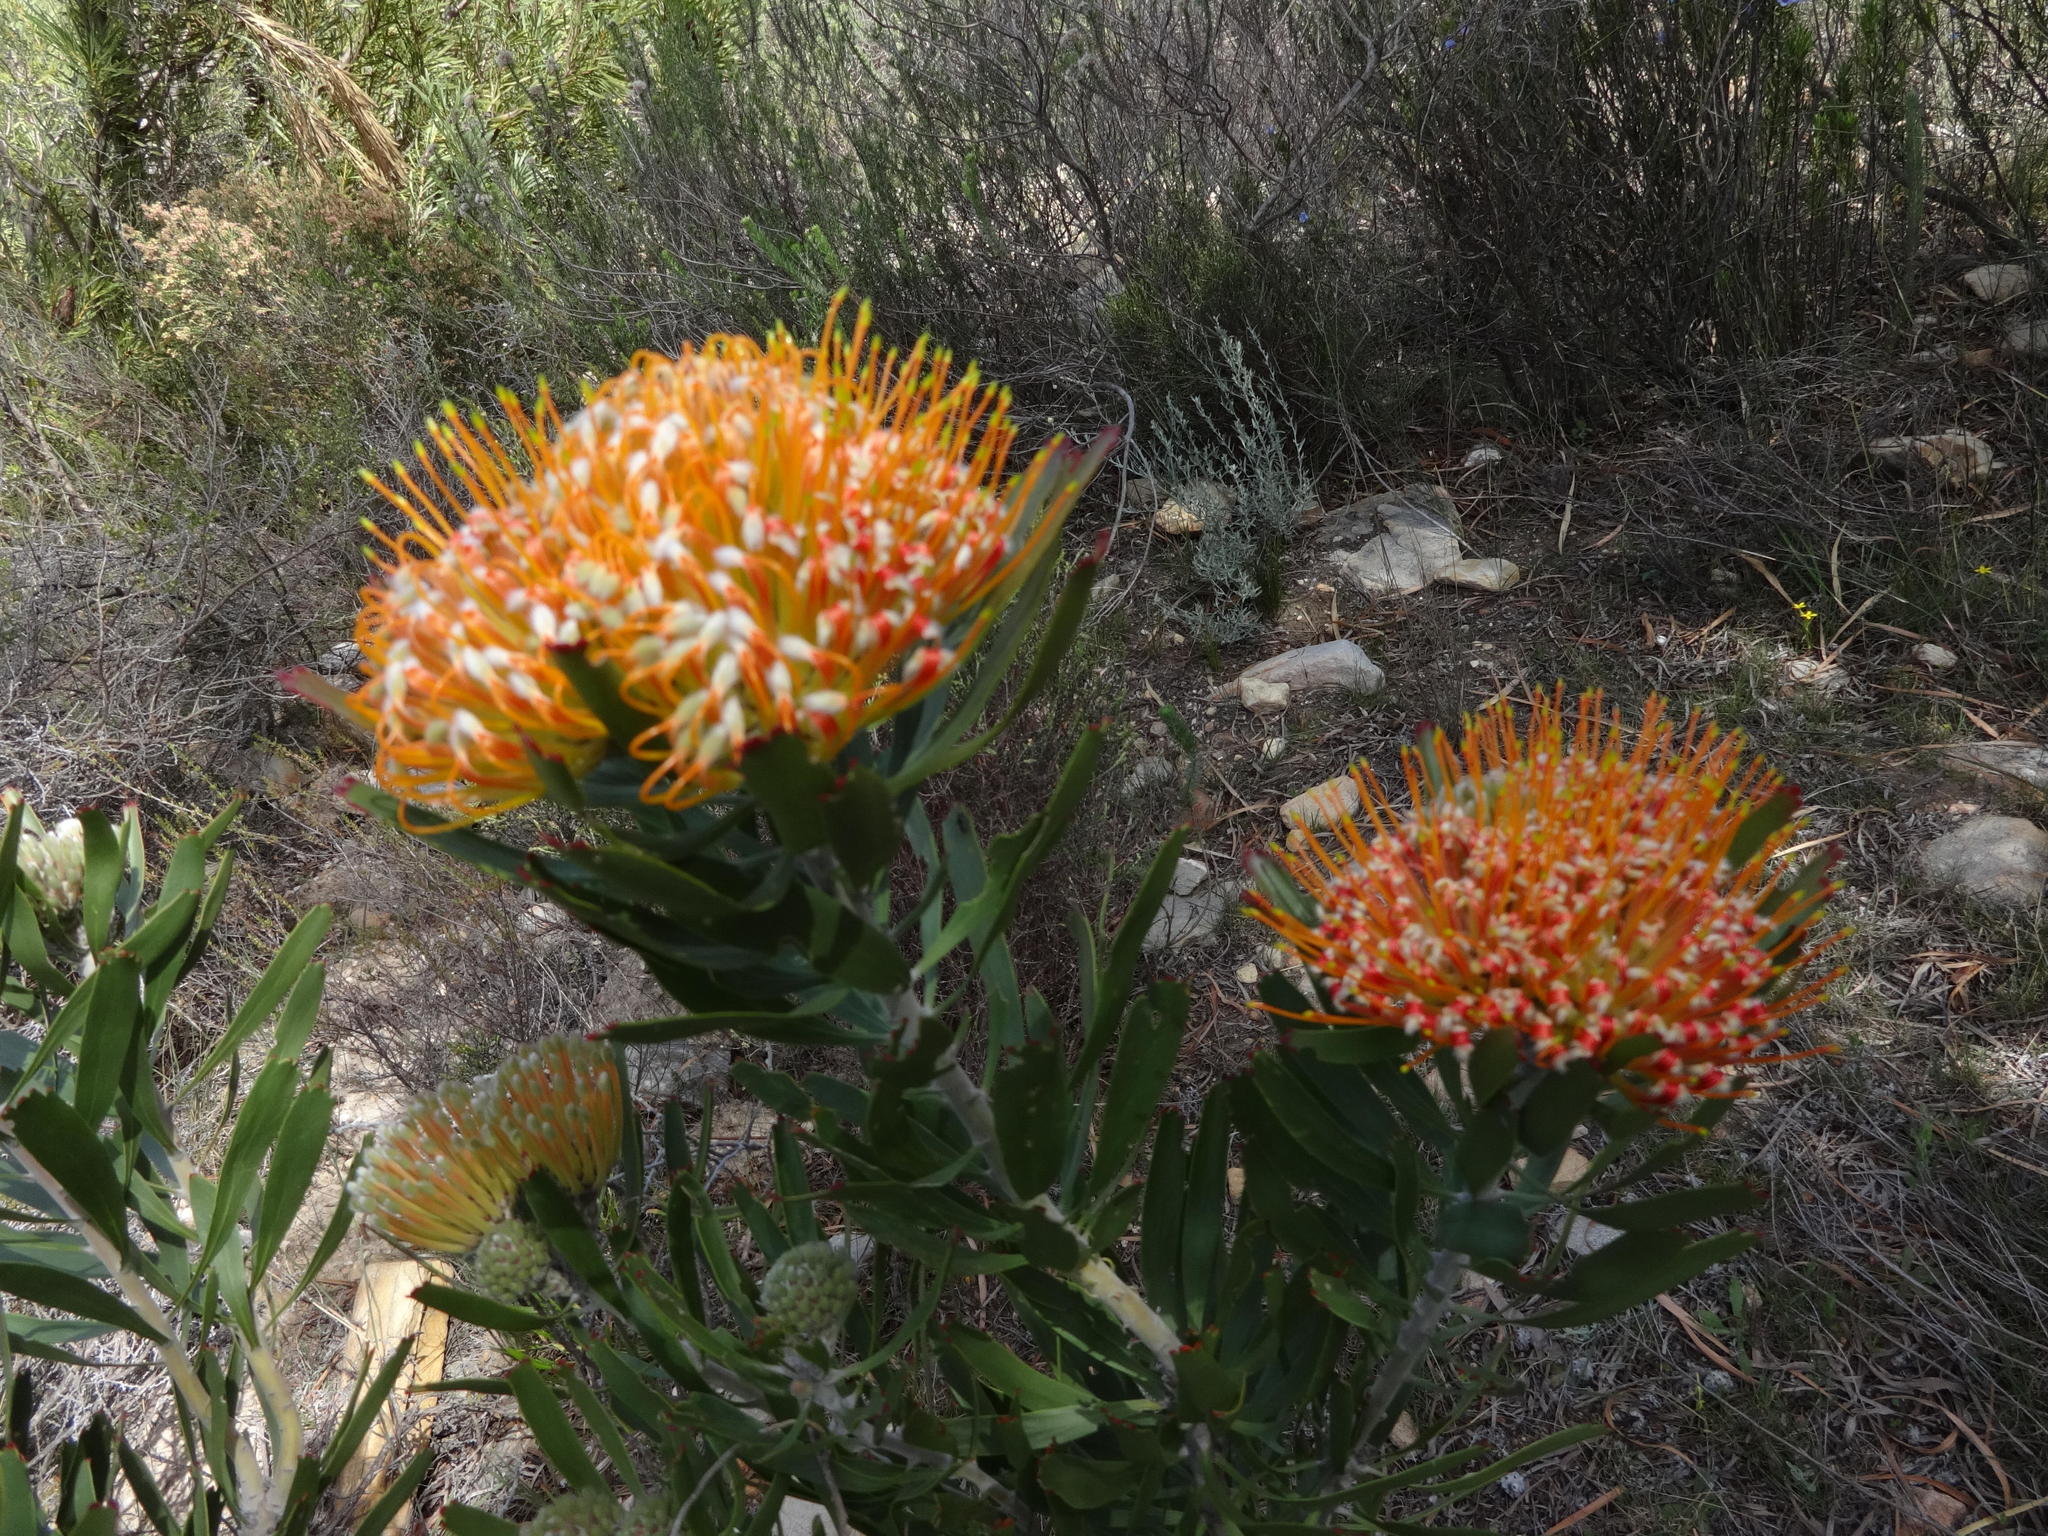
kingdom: Plantae
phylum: Tracheophyta
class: Magnoliopsida
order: Proteales
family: Proteaceae
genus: Leucospermum
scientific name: Leucospermum cuneiforme
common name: Common pincushion
